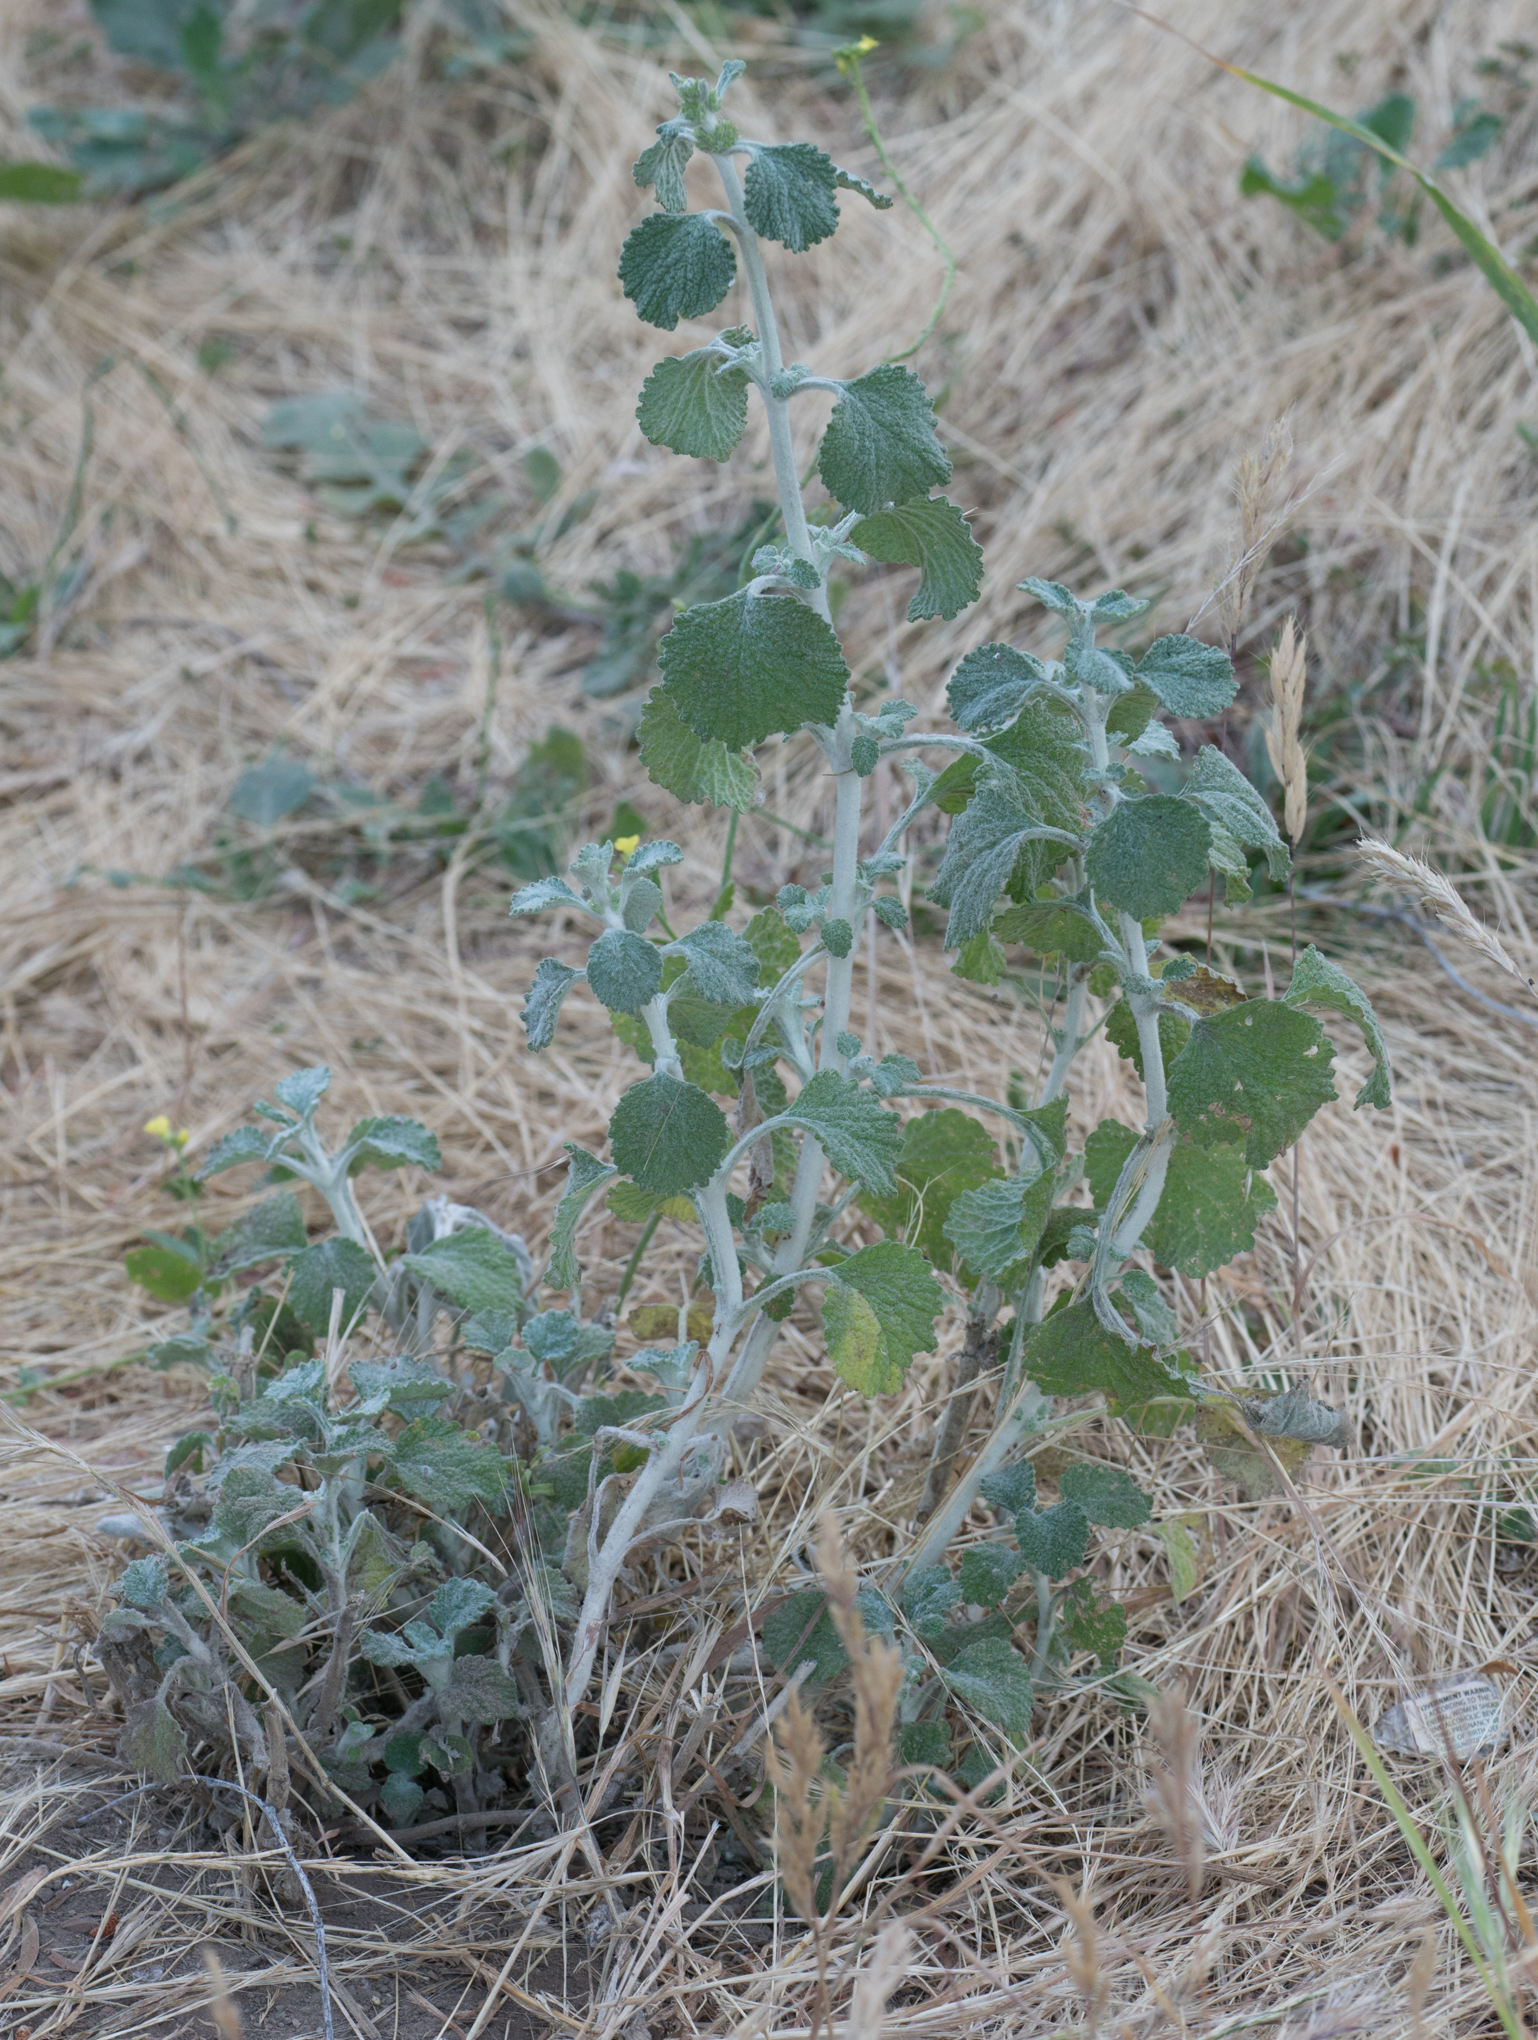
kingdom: Plantae
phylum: Tracheophyta
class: Magnoliopsida
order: Lamiales
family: Lamiaceae
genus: Marrubium
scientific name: Marrubium vulgare
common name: Horehound
